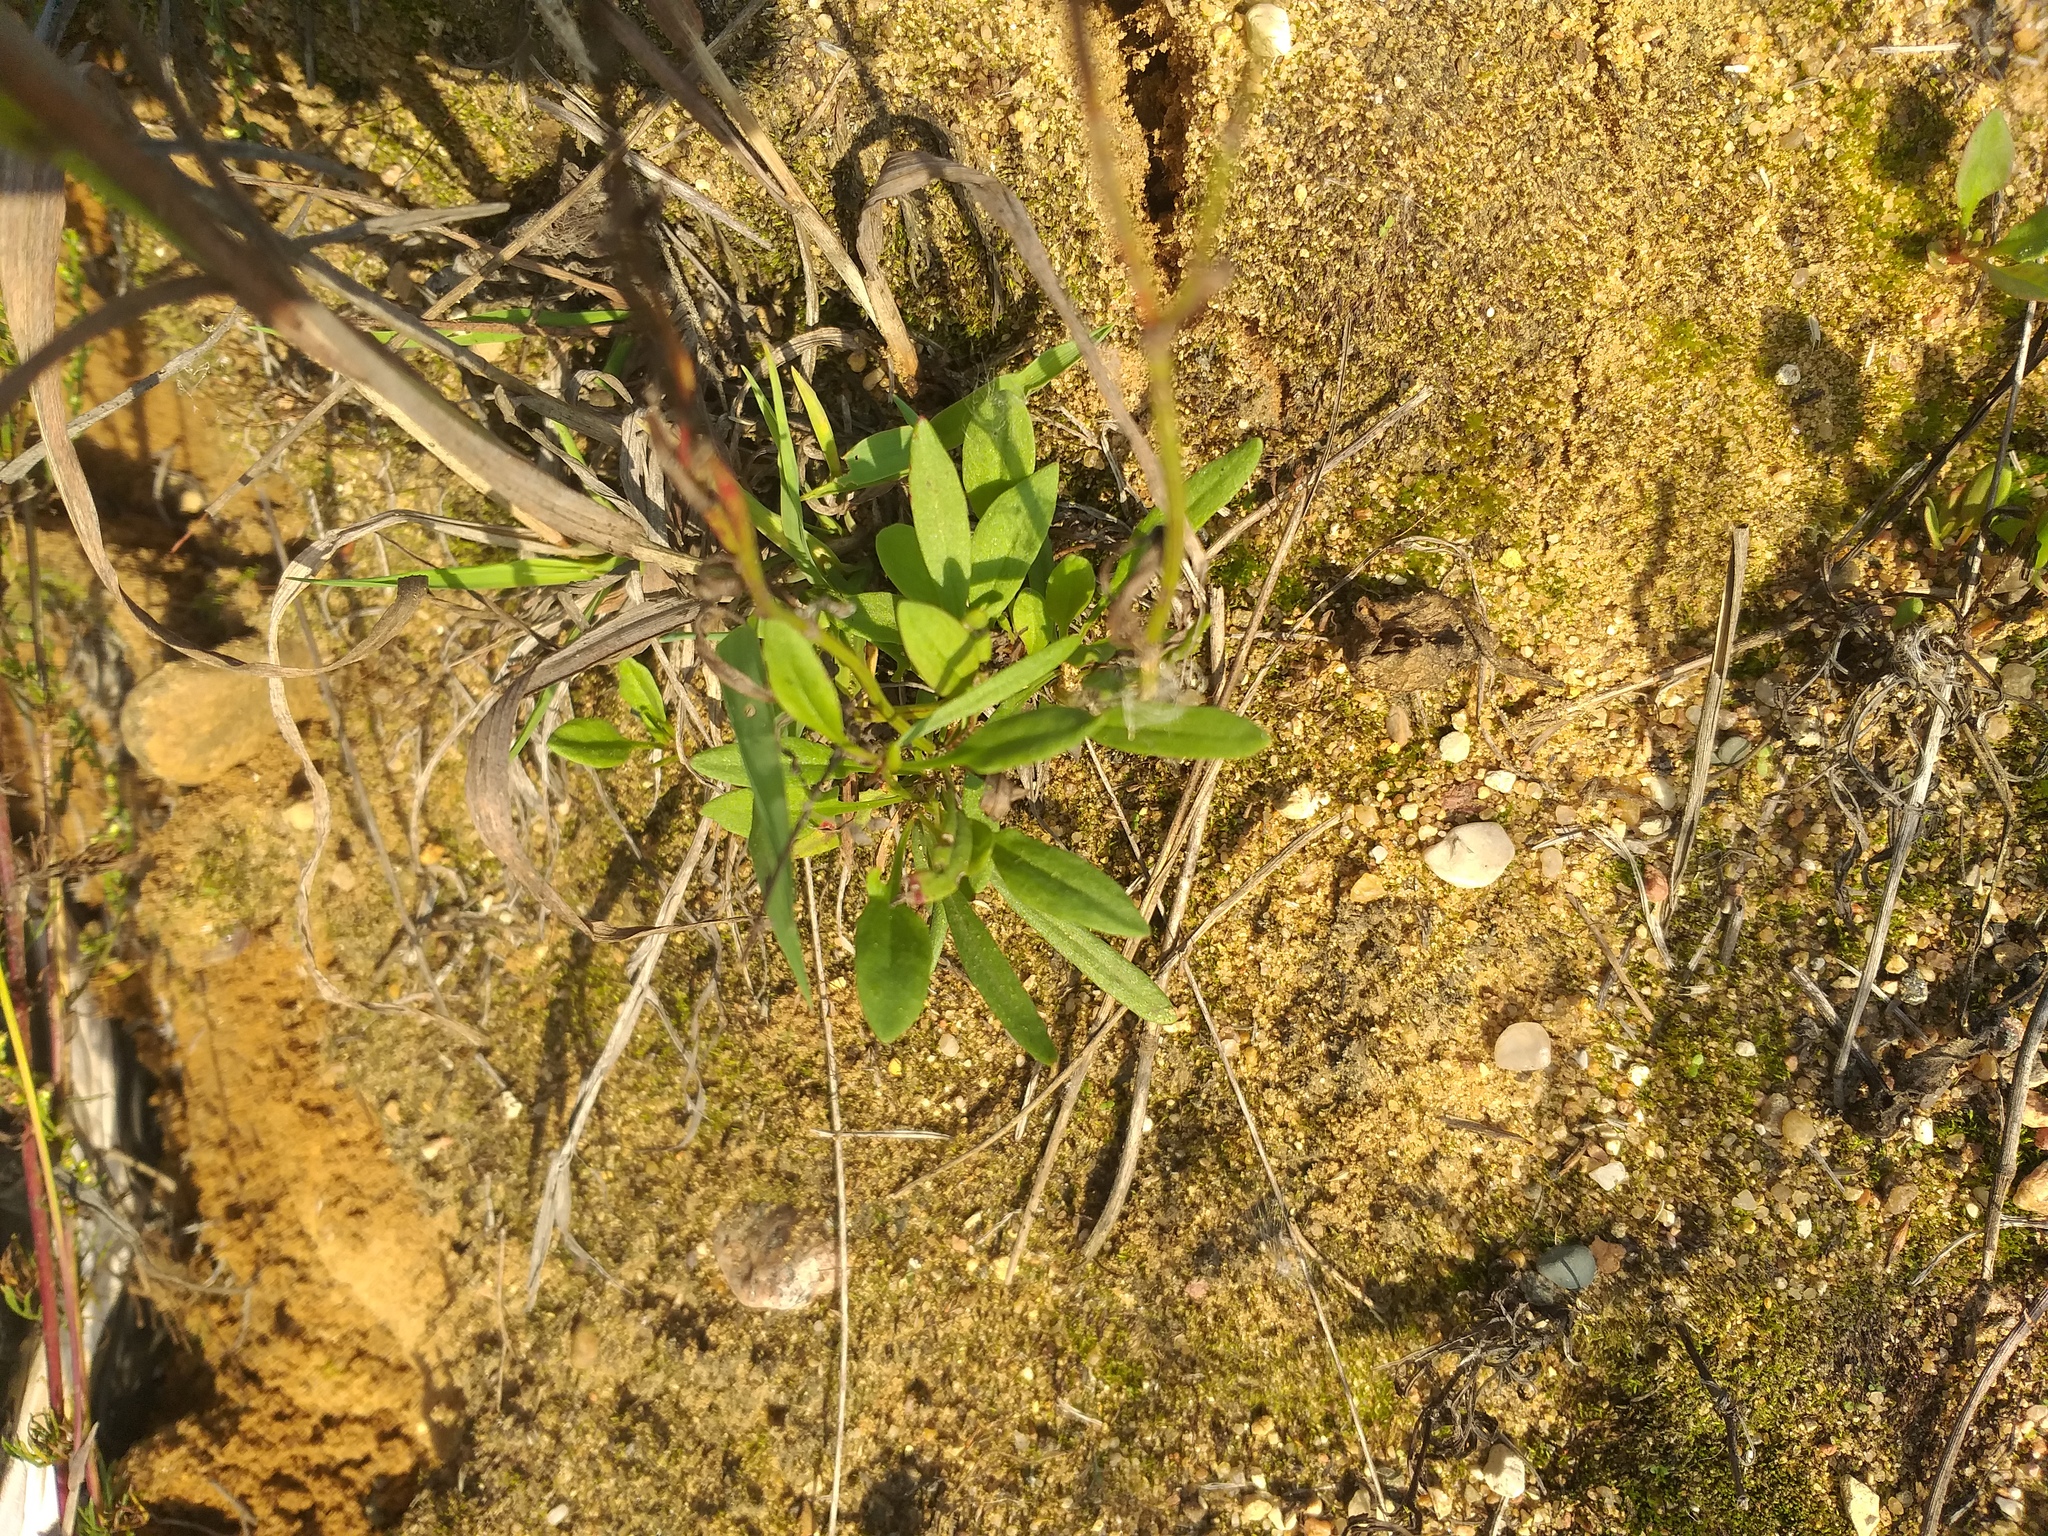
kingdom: Plantae
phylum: Tracheophyta
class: Magnoliopsida
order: Caryophyllales
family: Polygonaceae
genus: Rumex
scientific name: Rumex acetosella
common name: Common sheep sorrel
